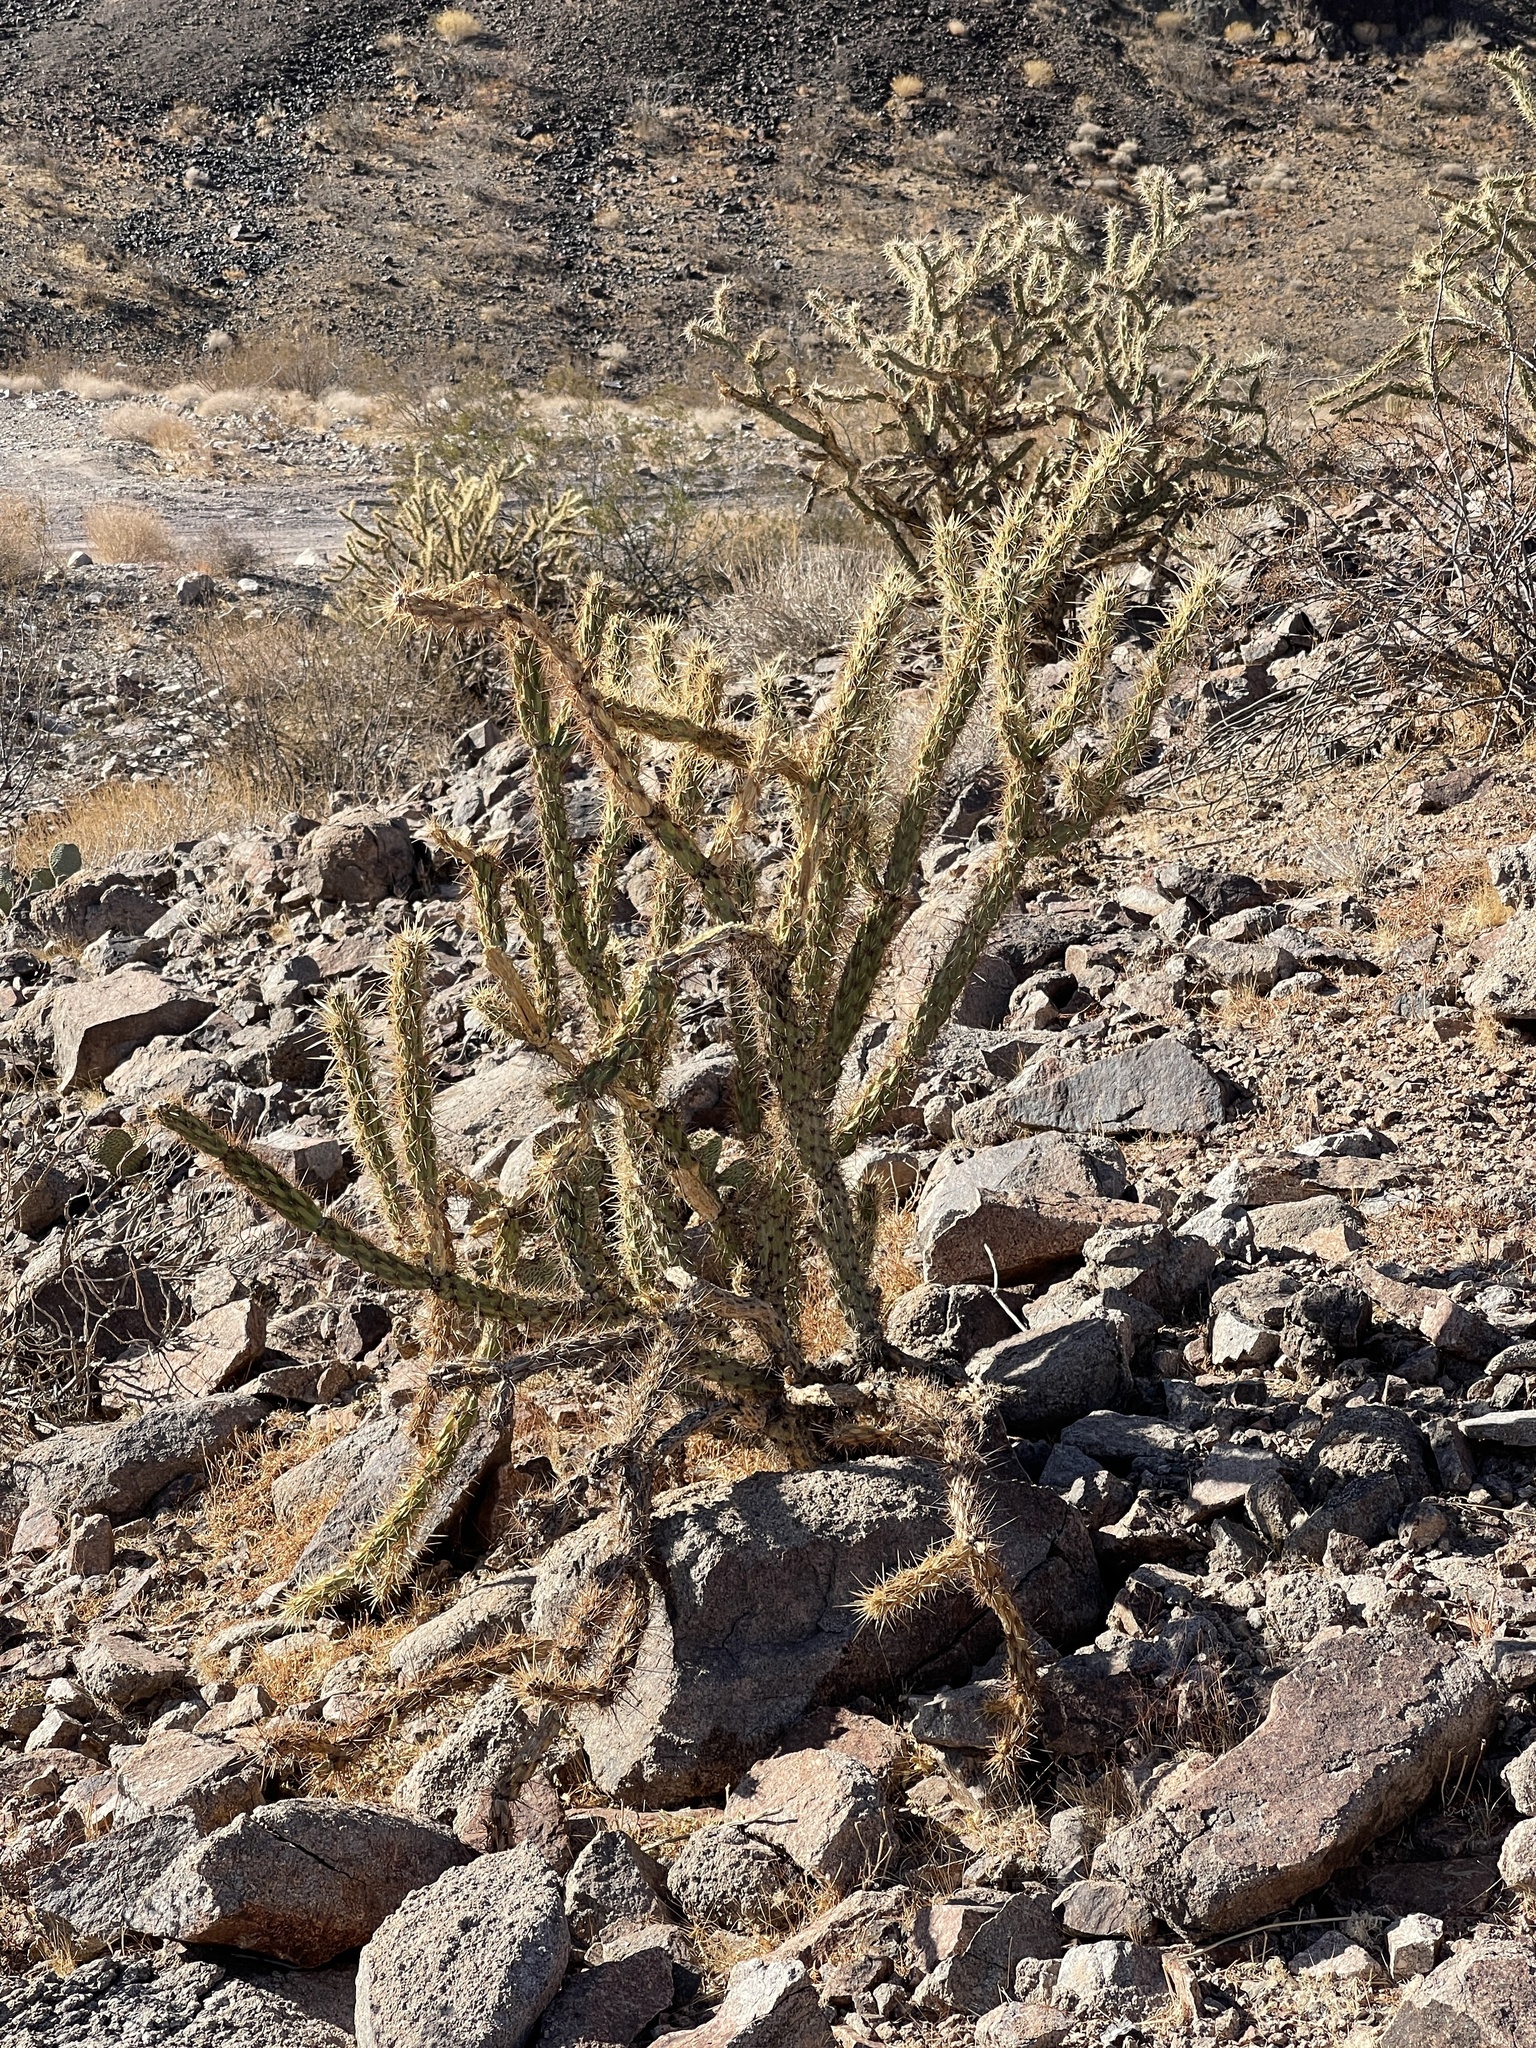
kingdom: Plantae
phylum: Tracheophyta
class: Magnoliopsida
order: Caryophyllales
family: Cactaceae
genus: Cylindropuntia
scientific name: Cylindropuntia acanthocarpa
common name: Buckhorn cholla
